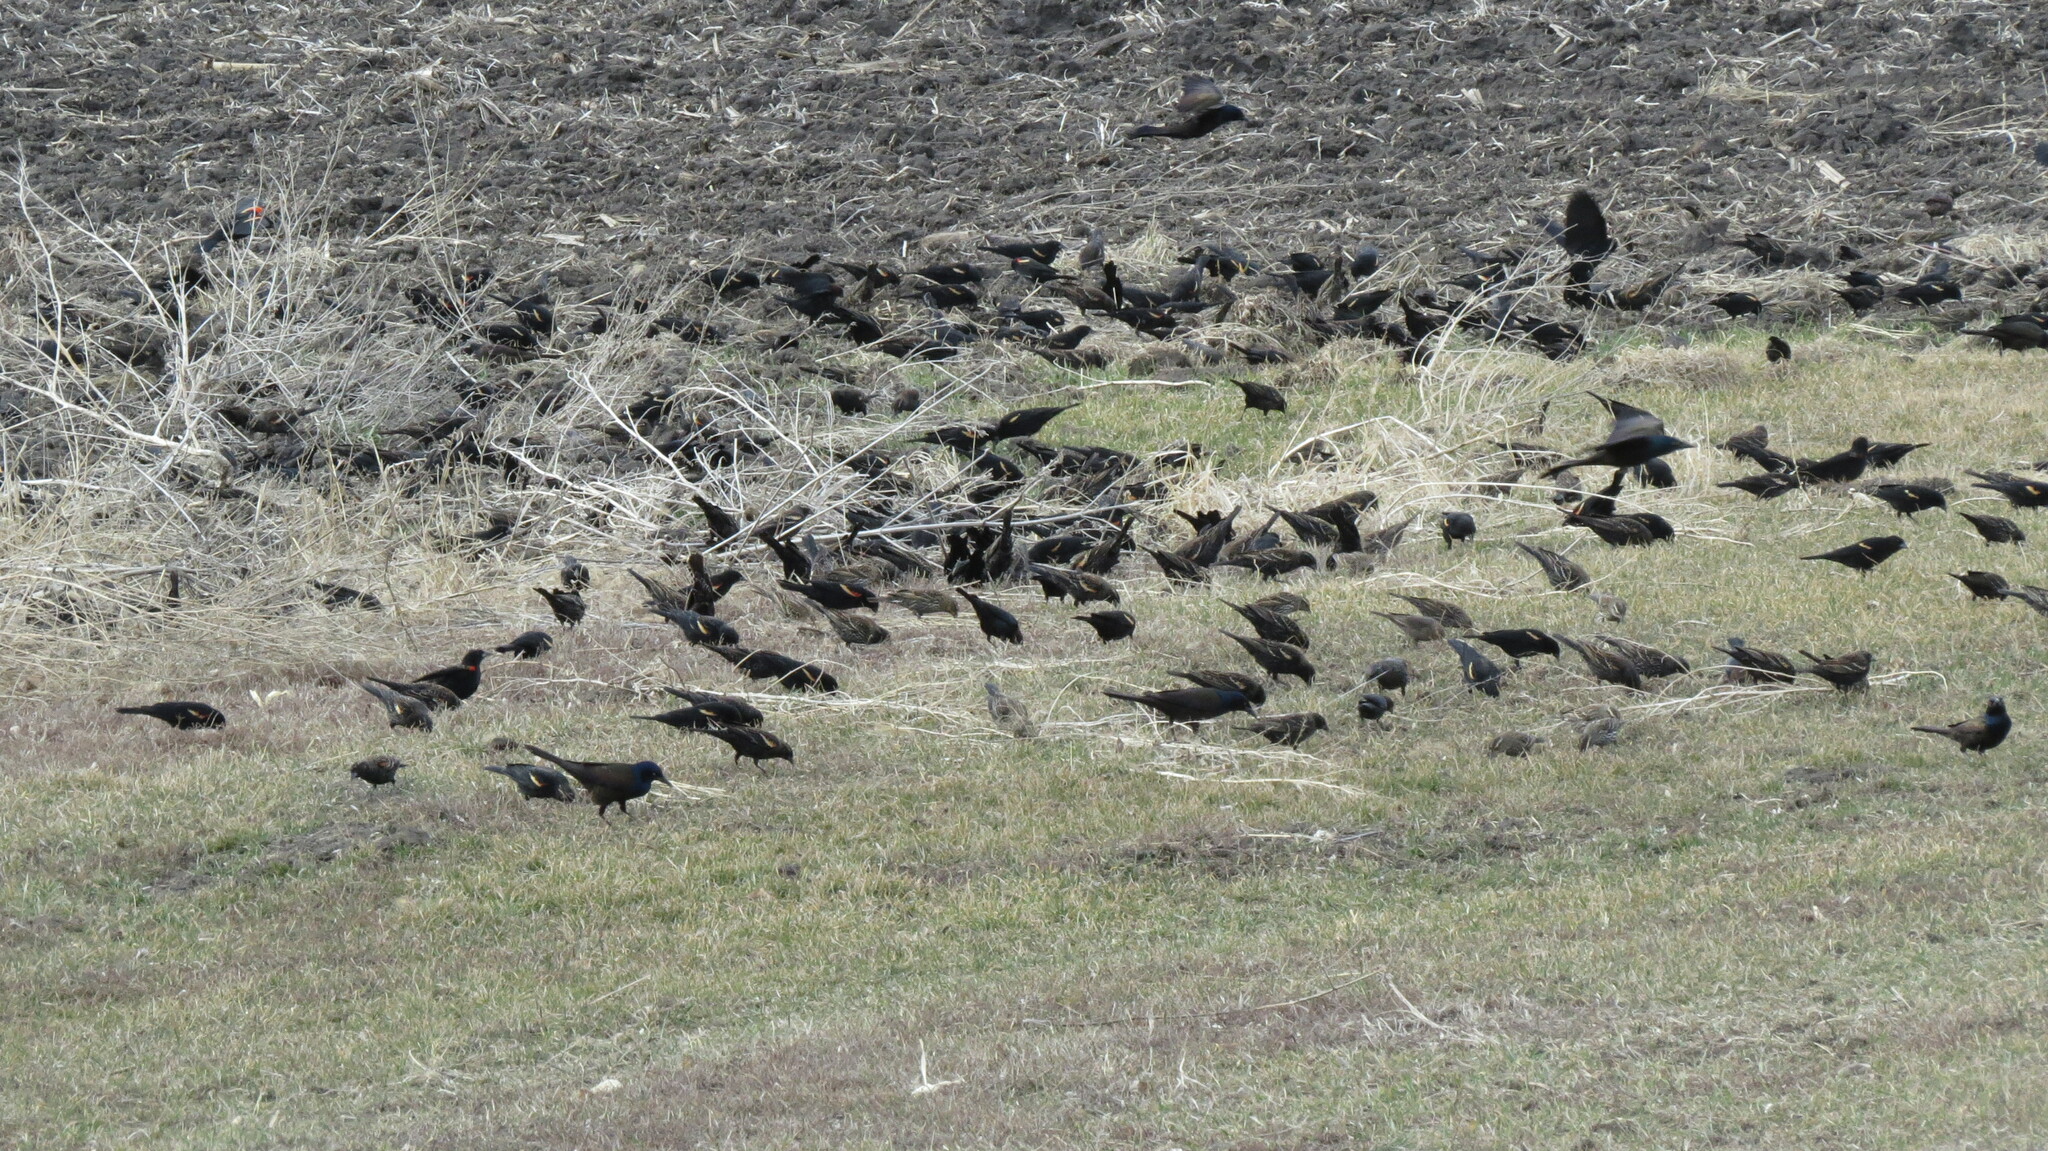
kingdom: Animalia
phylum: Chordata
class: Aves
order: Passeriformes
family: Sturnidae
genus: Sturnus
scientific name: Sturnus vulgaris
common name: Common starling
